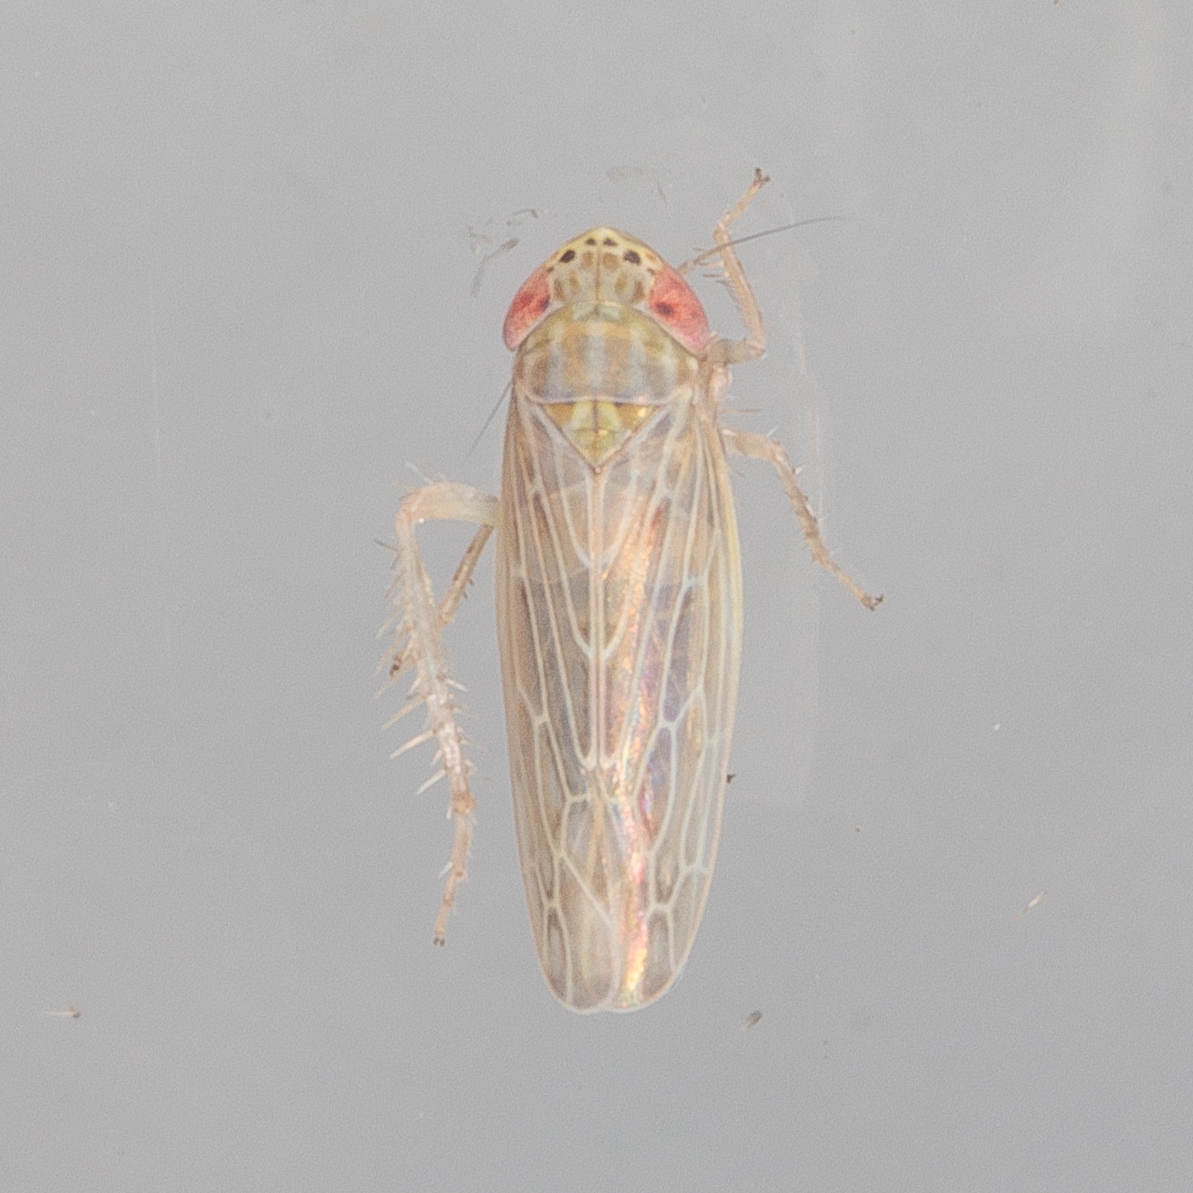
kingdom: Animalia
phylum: Arthropoda
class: Insecta
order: Hemiptera
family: Cicadellidae
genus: Graminella
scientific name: Graminella sonora
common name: Lesser lawn leafhopper
